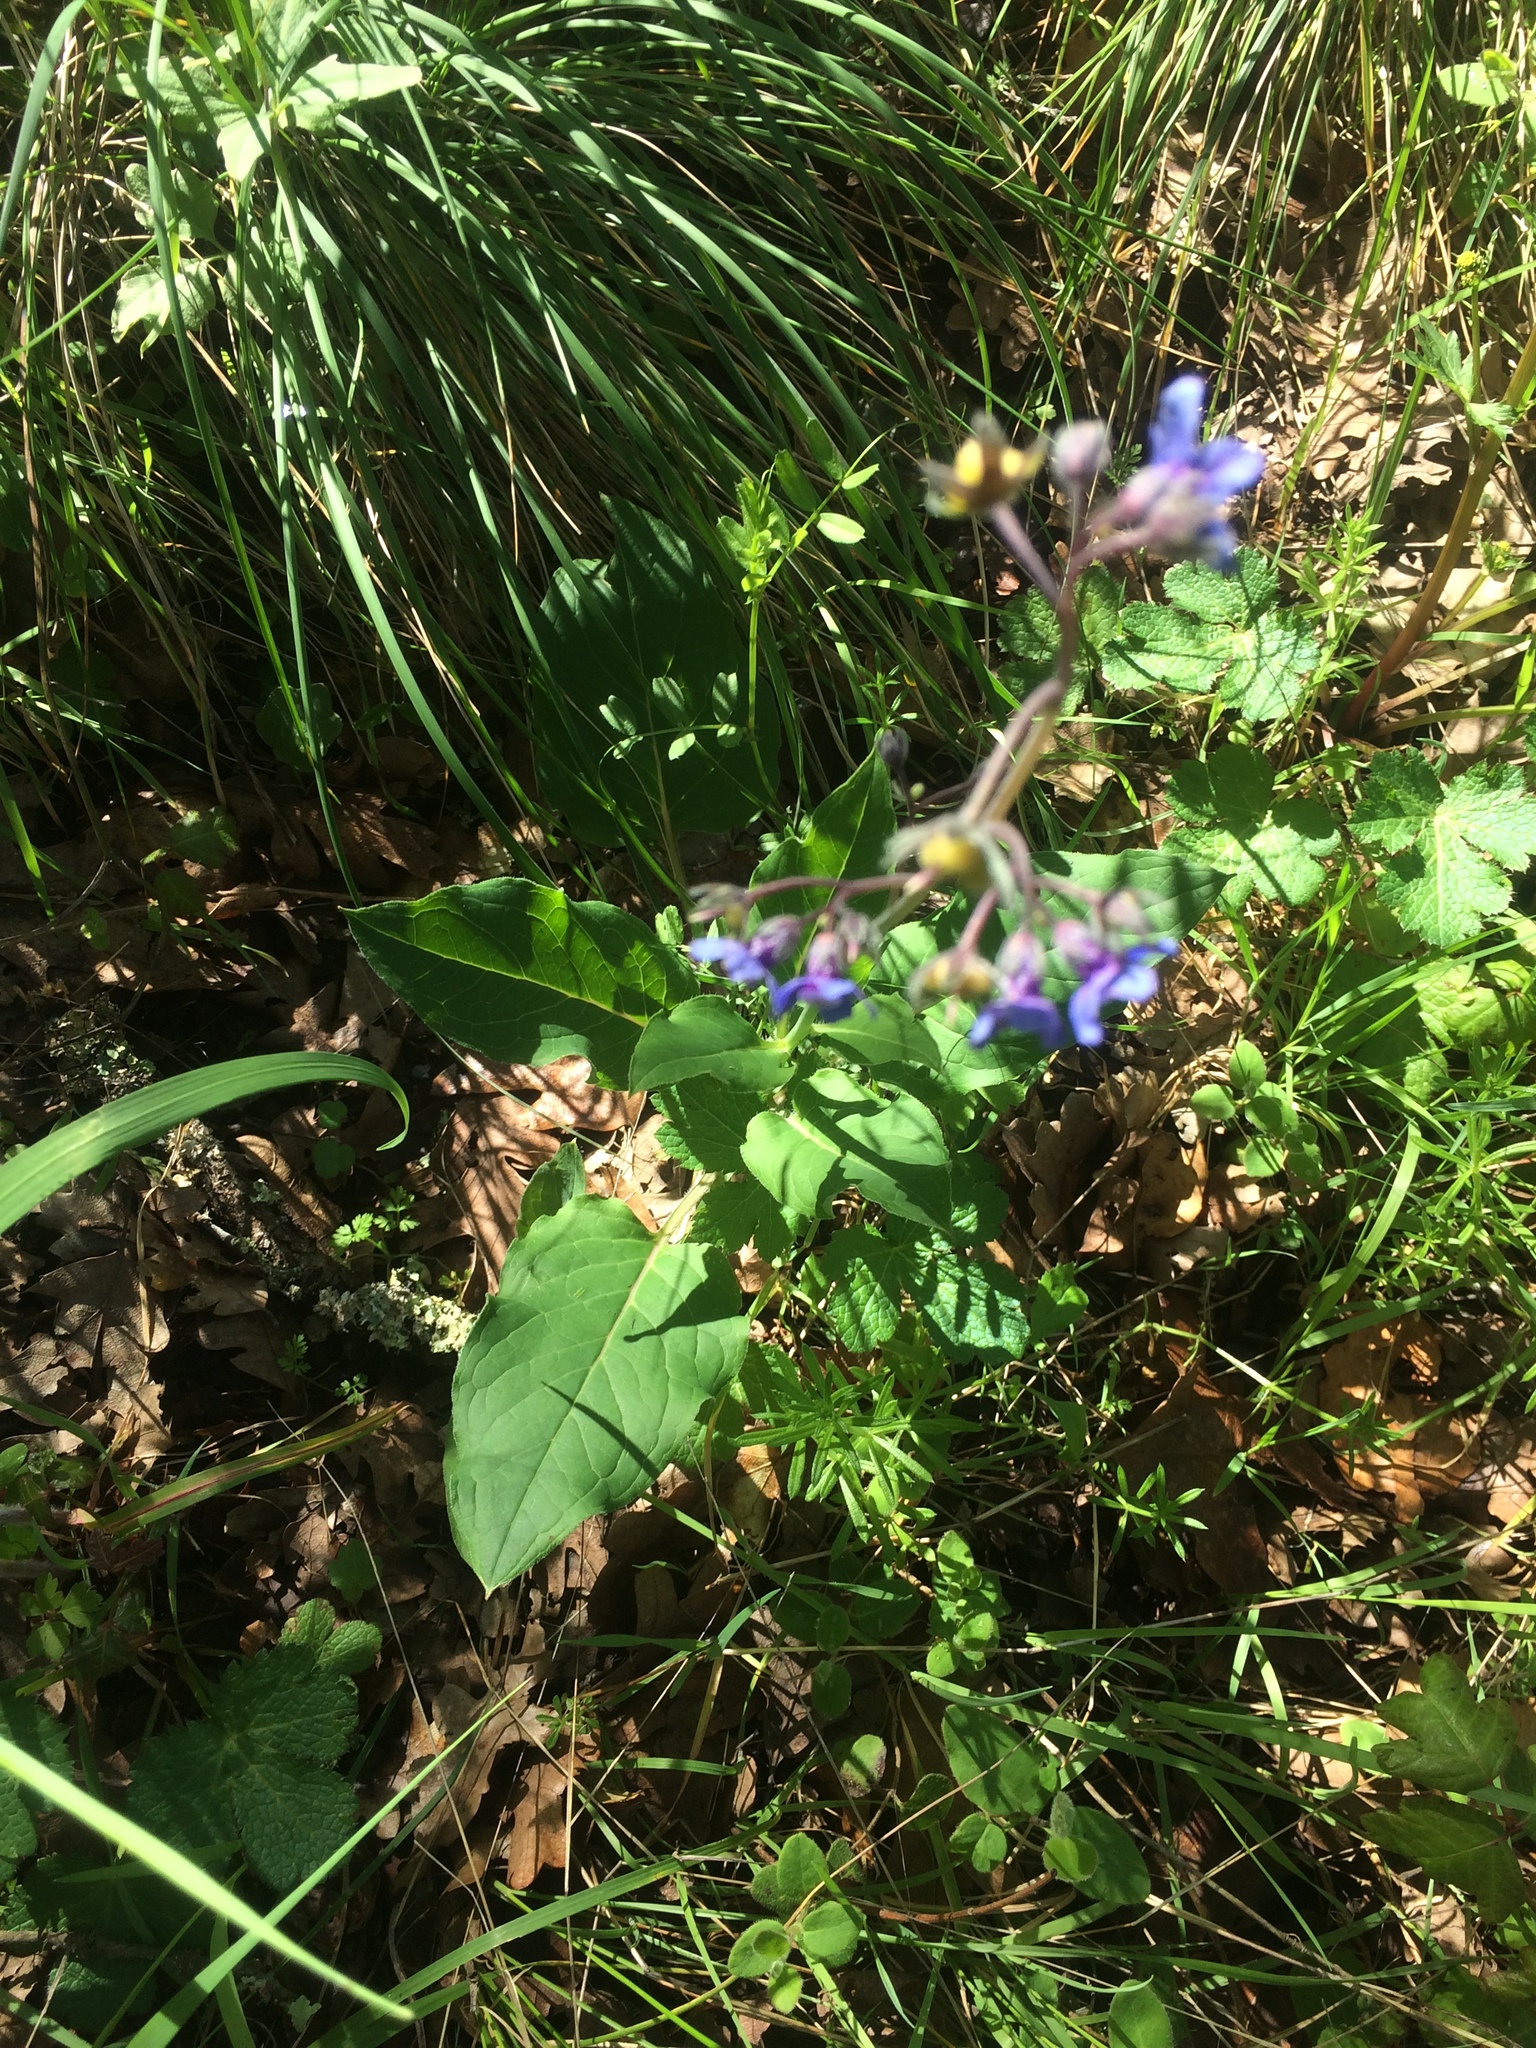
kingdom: Plantae
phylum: Tracheophyta
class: Magnoliopsida
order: Boraginales
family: Boraginaceae
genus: Adelinia
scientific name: Adelinia grande
